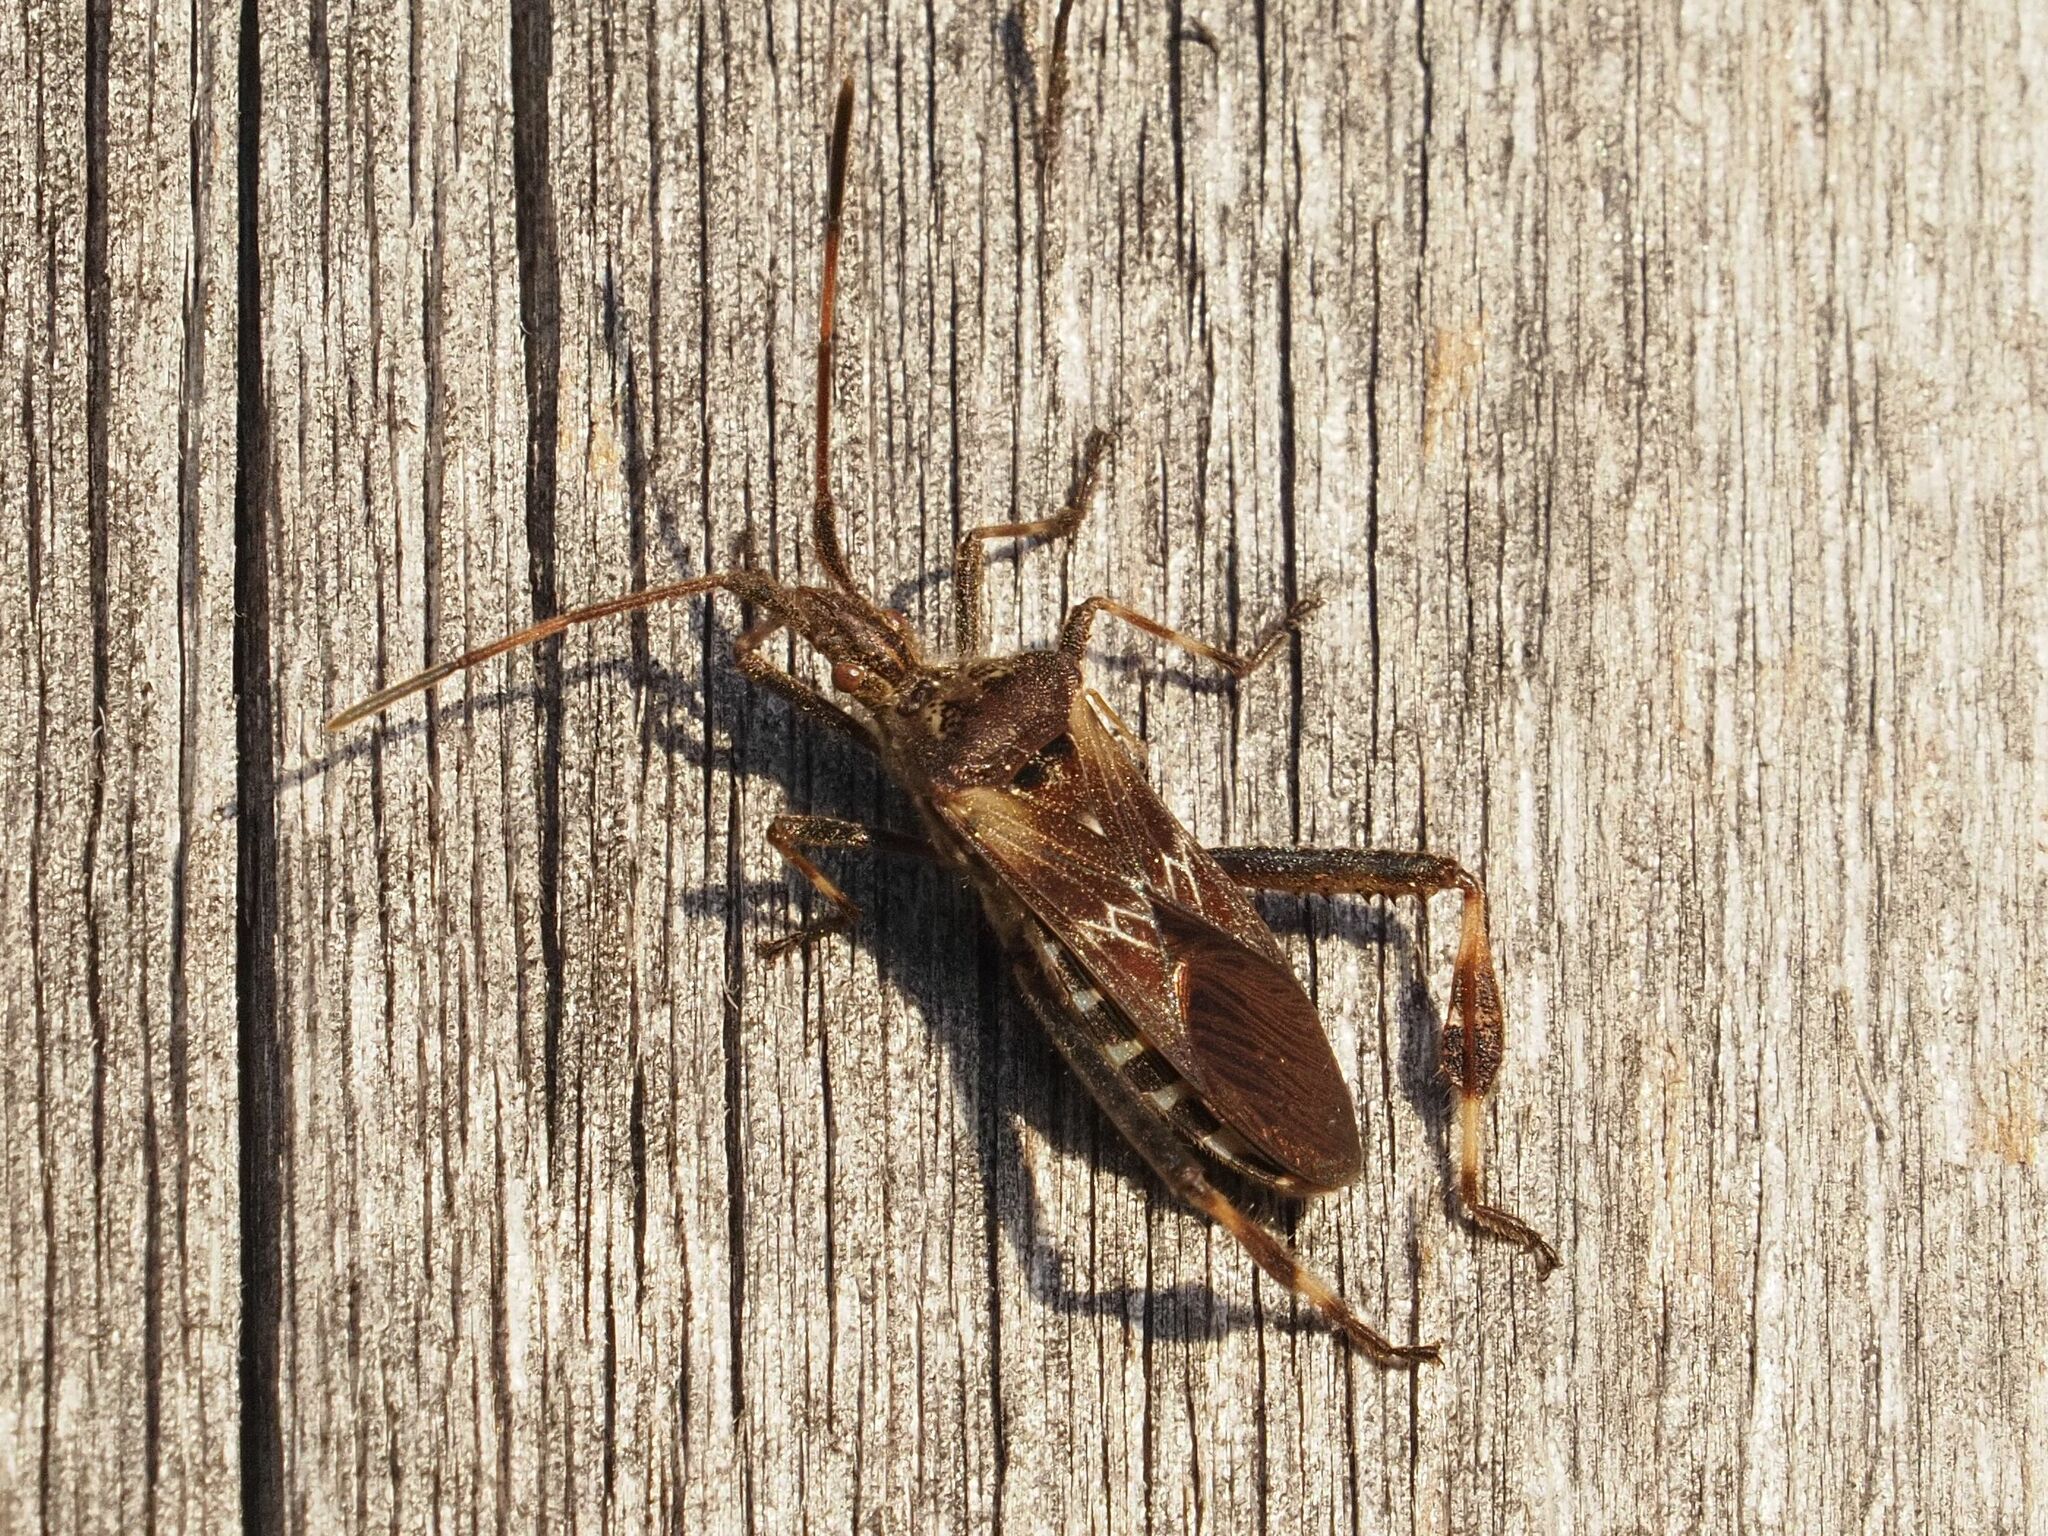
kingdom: Animalia
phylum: Arthropoda
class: Insecta
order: Hemiptera
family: Coreidae
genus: Leptoglossus
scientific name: Leptoglossus occidentalis
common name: Western conifer-seed bug
